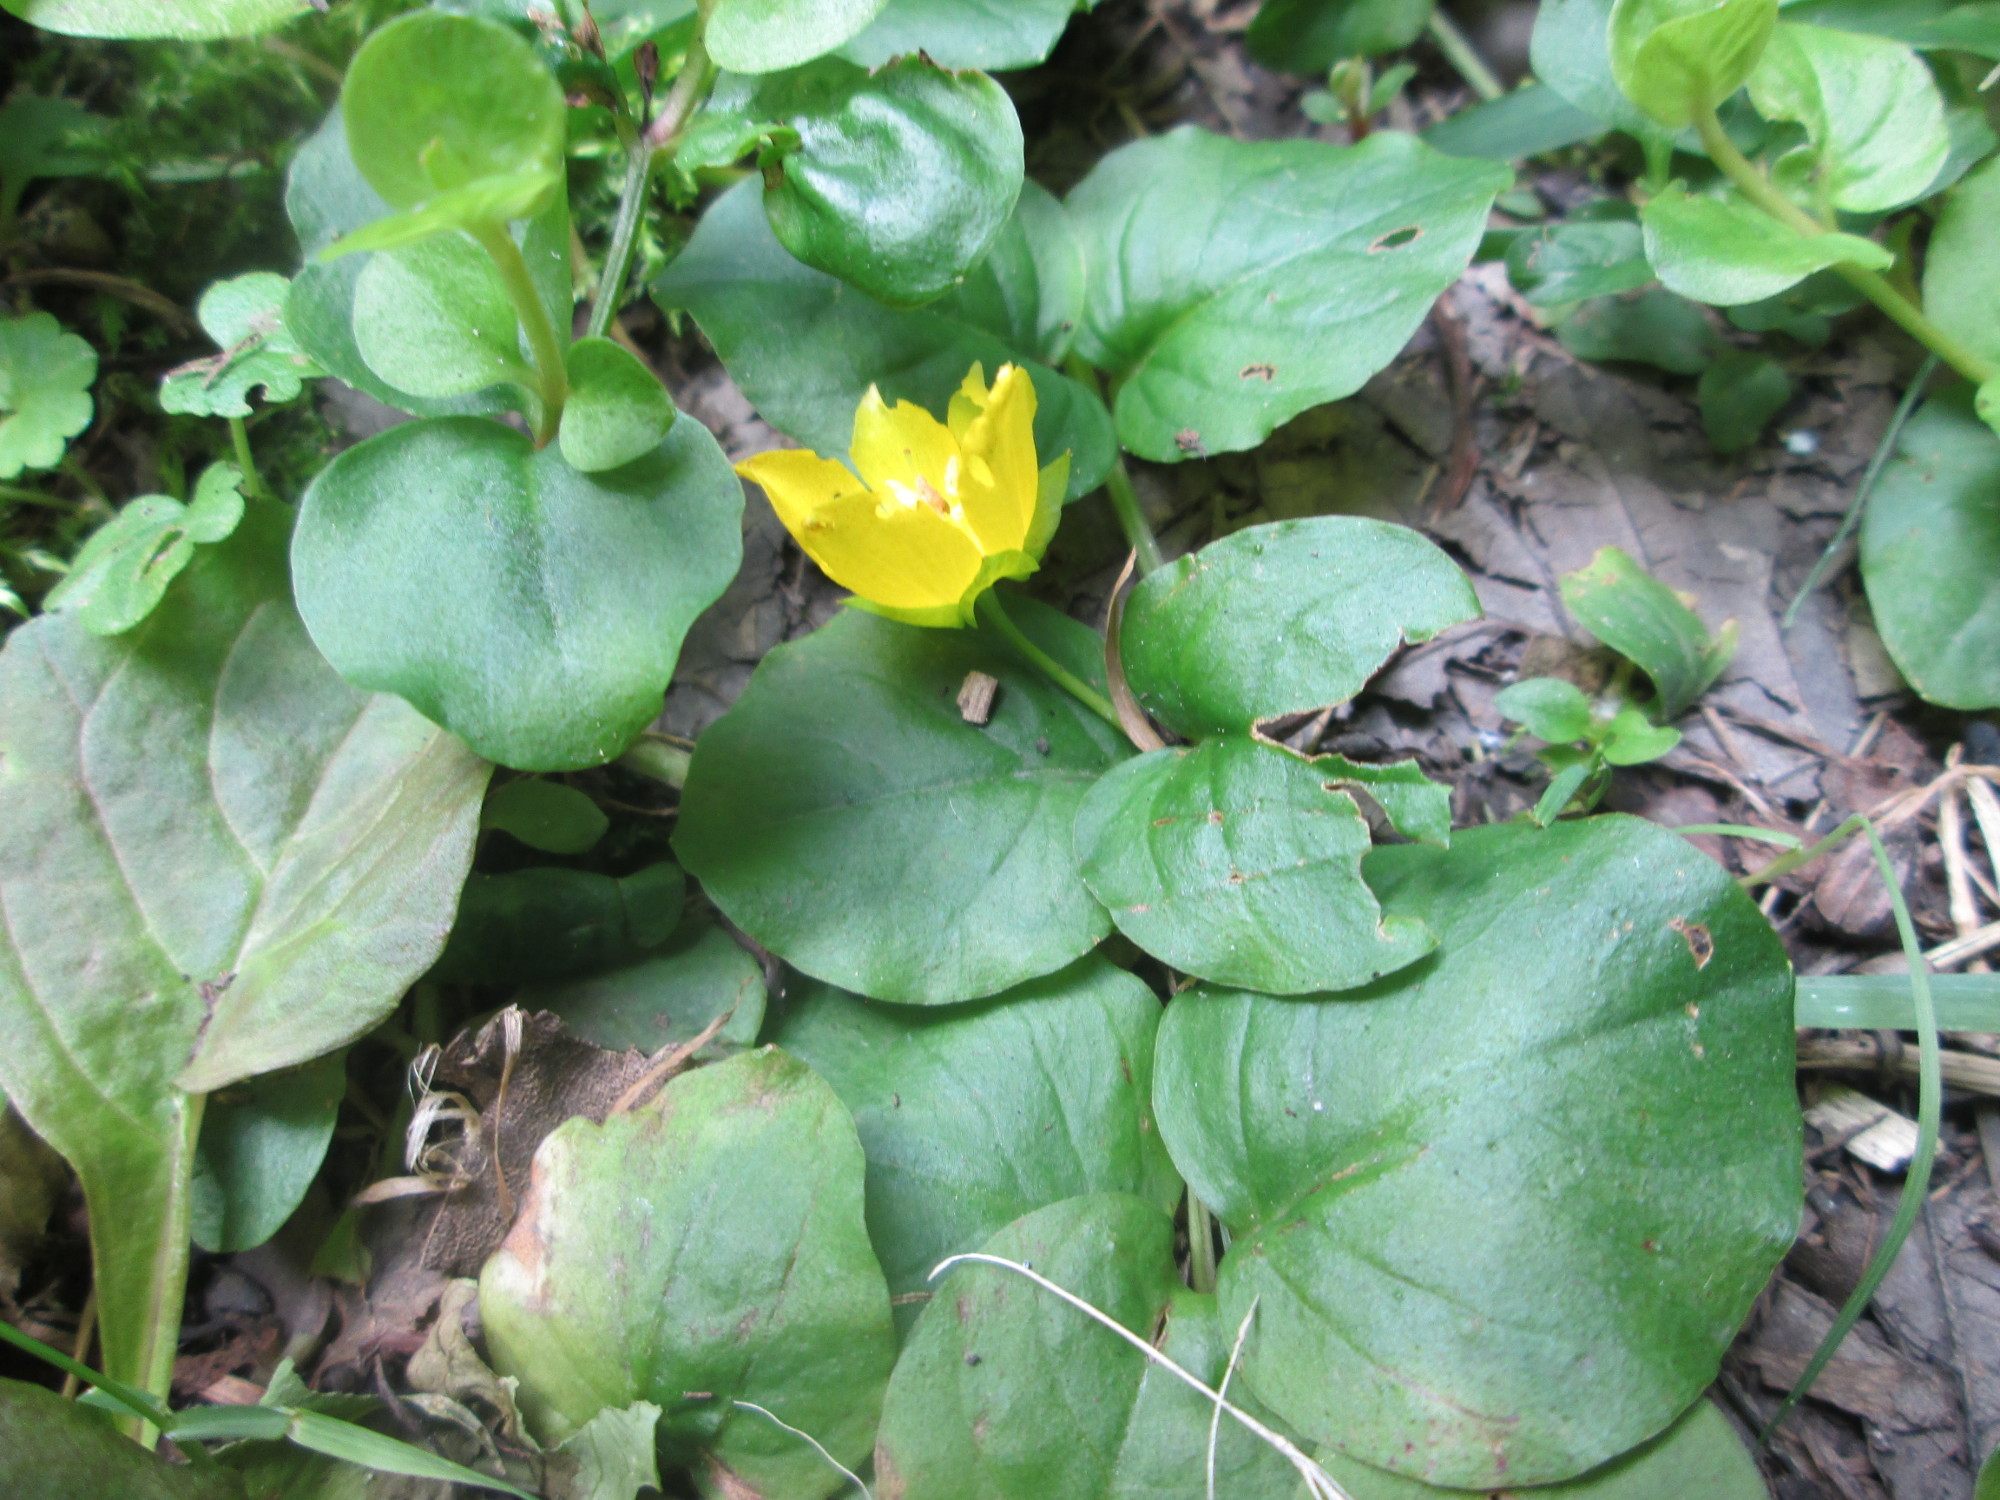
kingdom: Plantae
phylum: Tracheophyta
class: Magnoliopsida
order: Ericales
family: Primulaceae
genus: Lysimachia
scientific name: Lysimachia nummularia
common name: Moneywort
